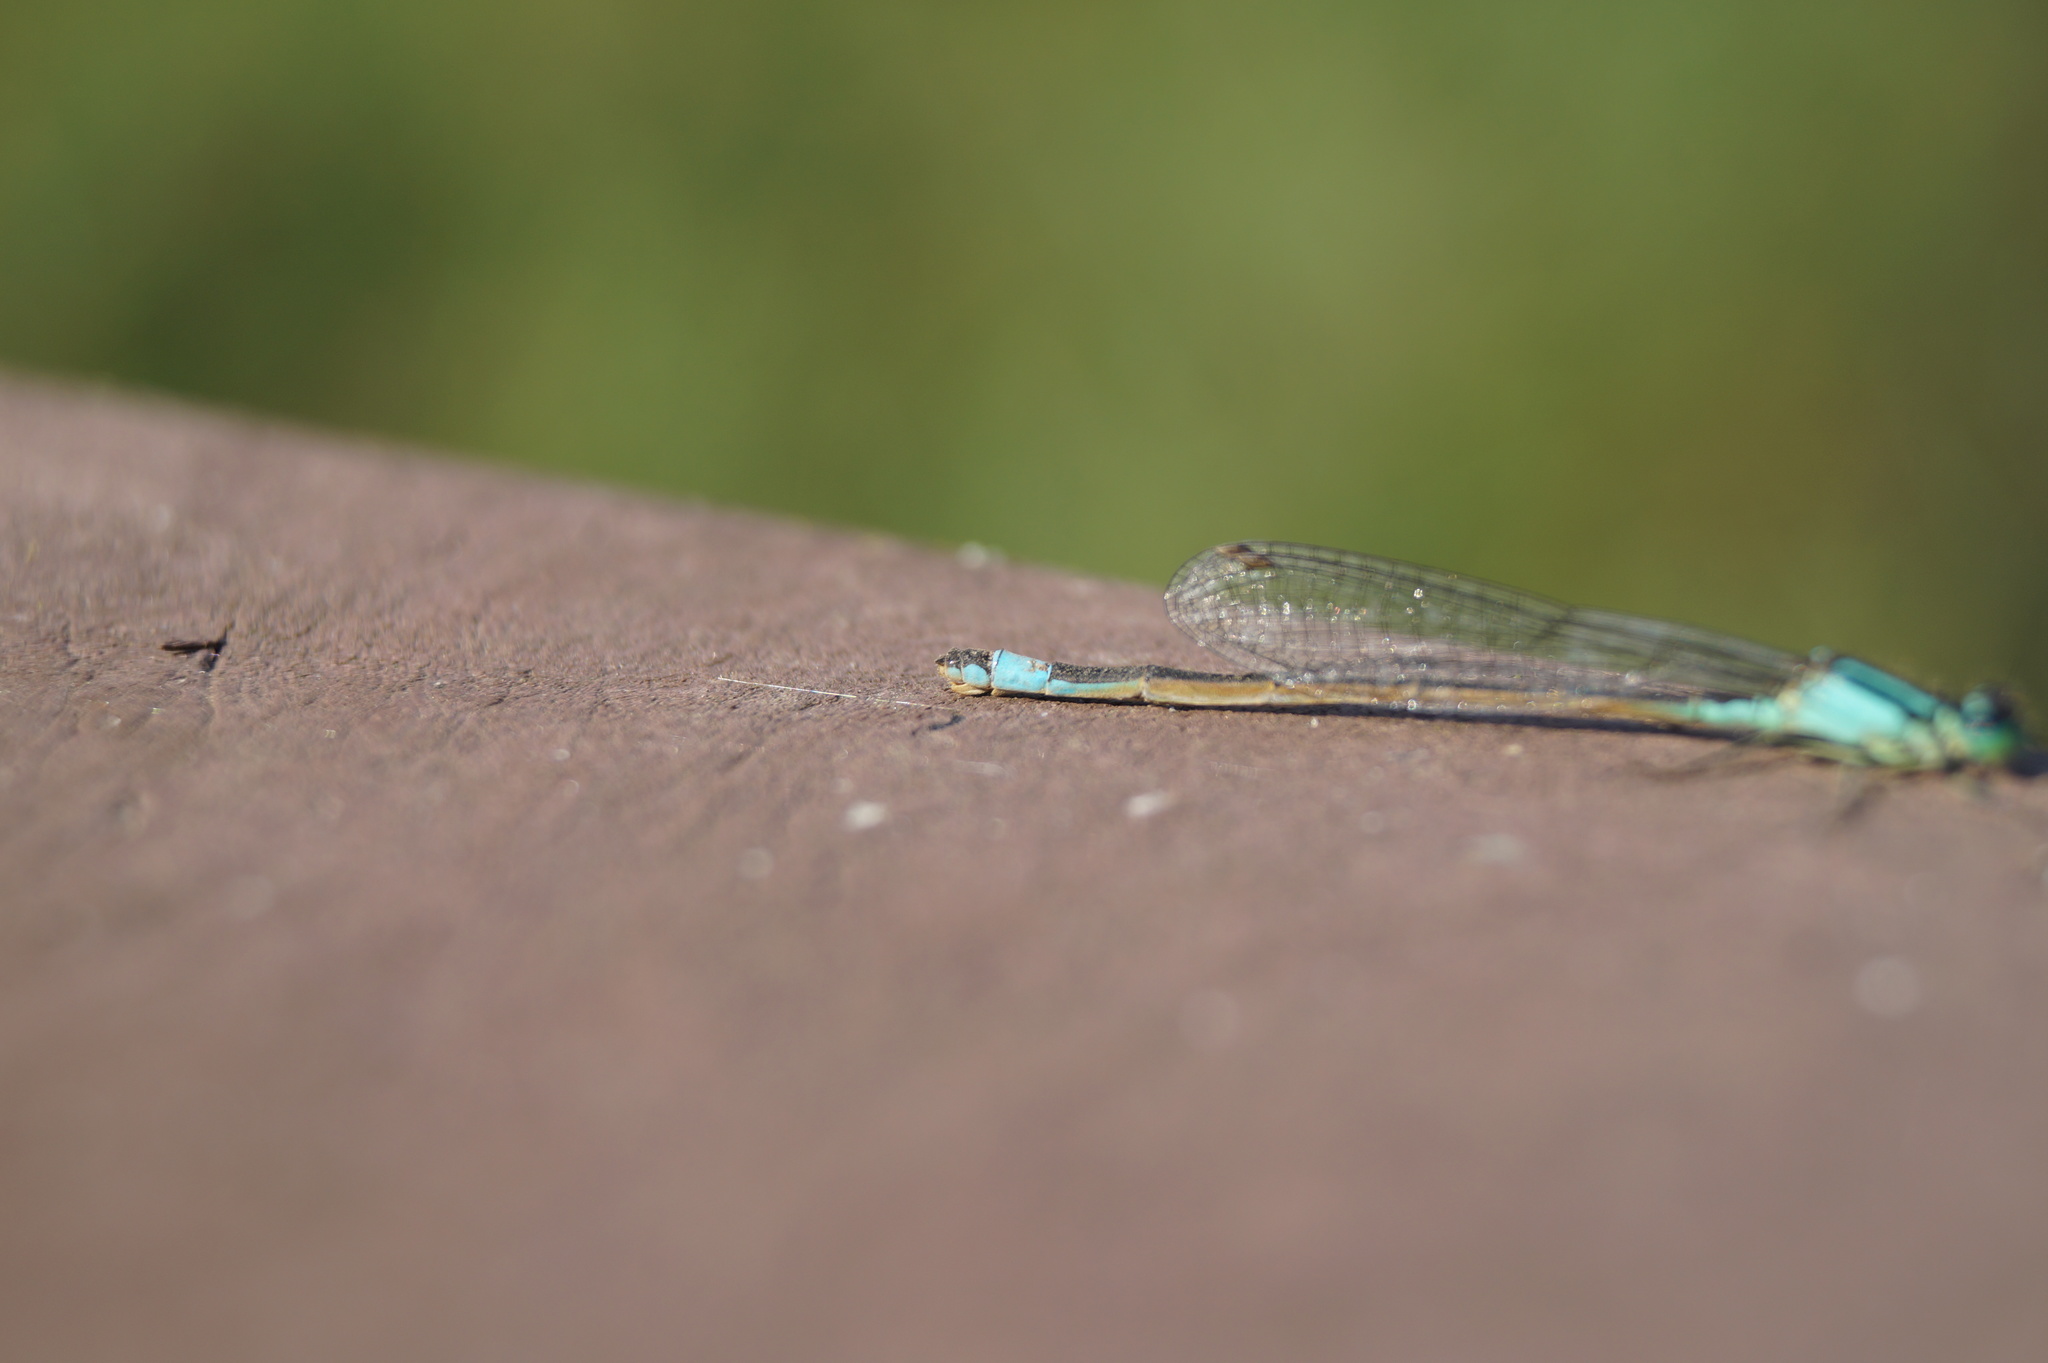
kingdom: Animalia
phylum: Arthropoda
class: Insecta
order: Odonata
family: Coenagrionidae
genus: Ischnura
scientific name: Ischnura elegans
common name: Blue-tailed damselfly
